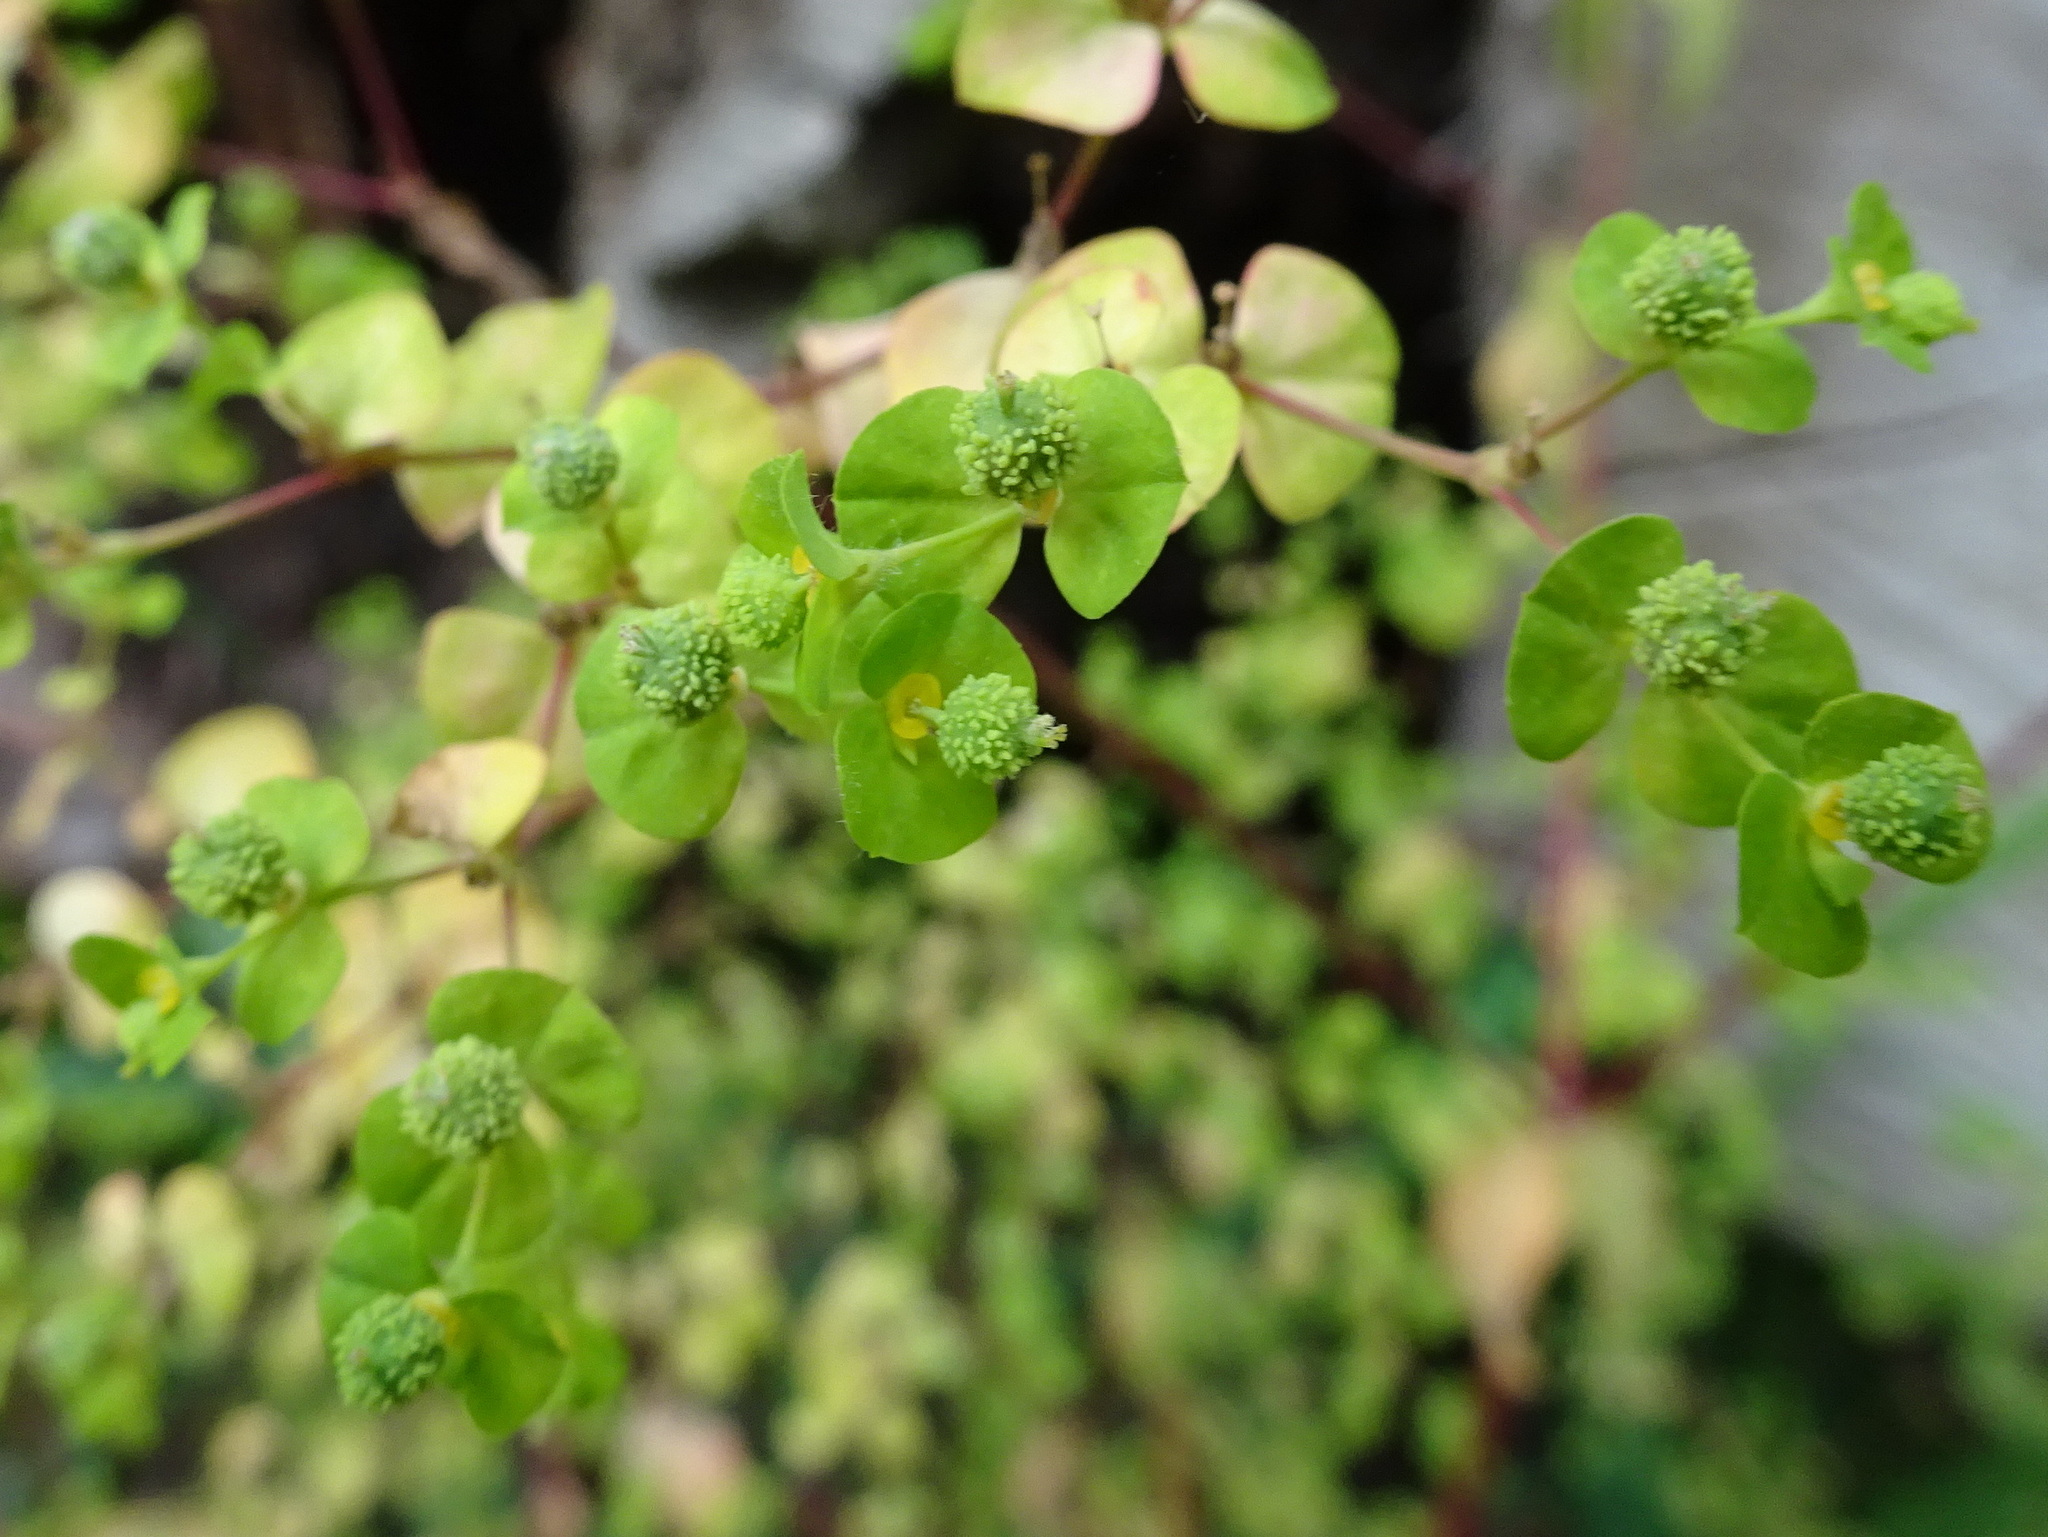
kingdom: Plantae
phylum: Tracheophyta
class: Magnoliopsida
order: Malpighiales
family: Euphorbiaceae
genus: Euphorbia
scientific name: Euphorbia stricta
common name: Upright spurge
